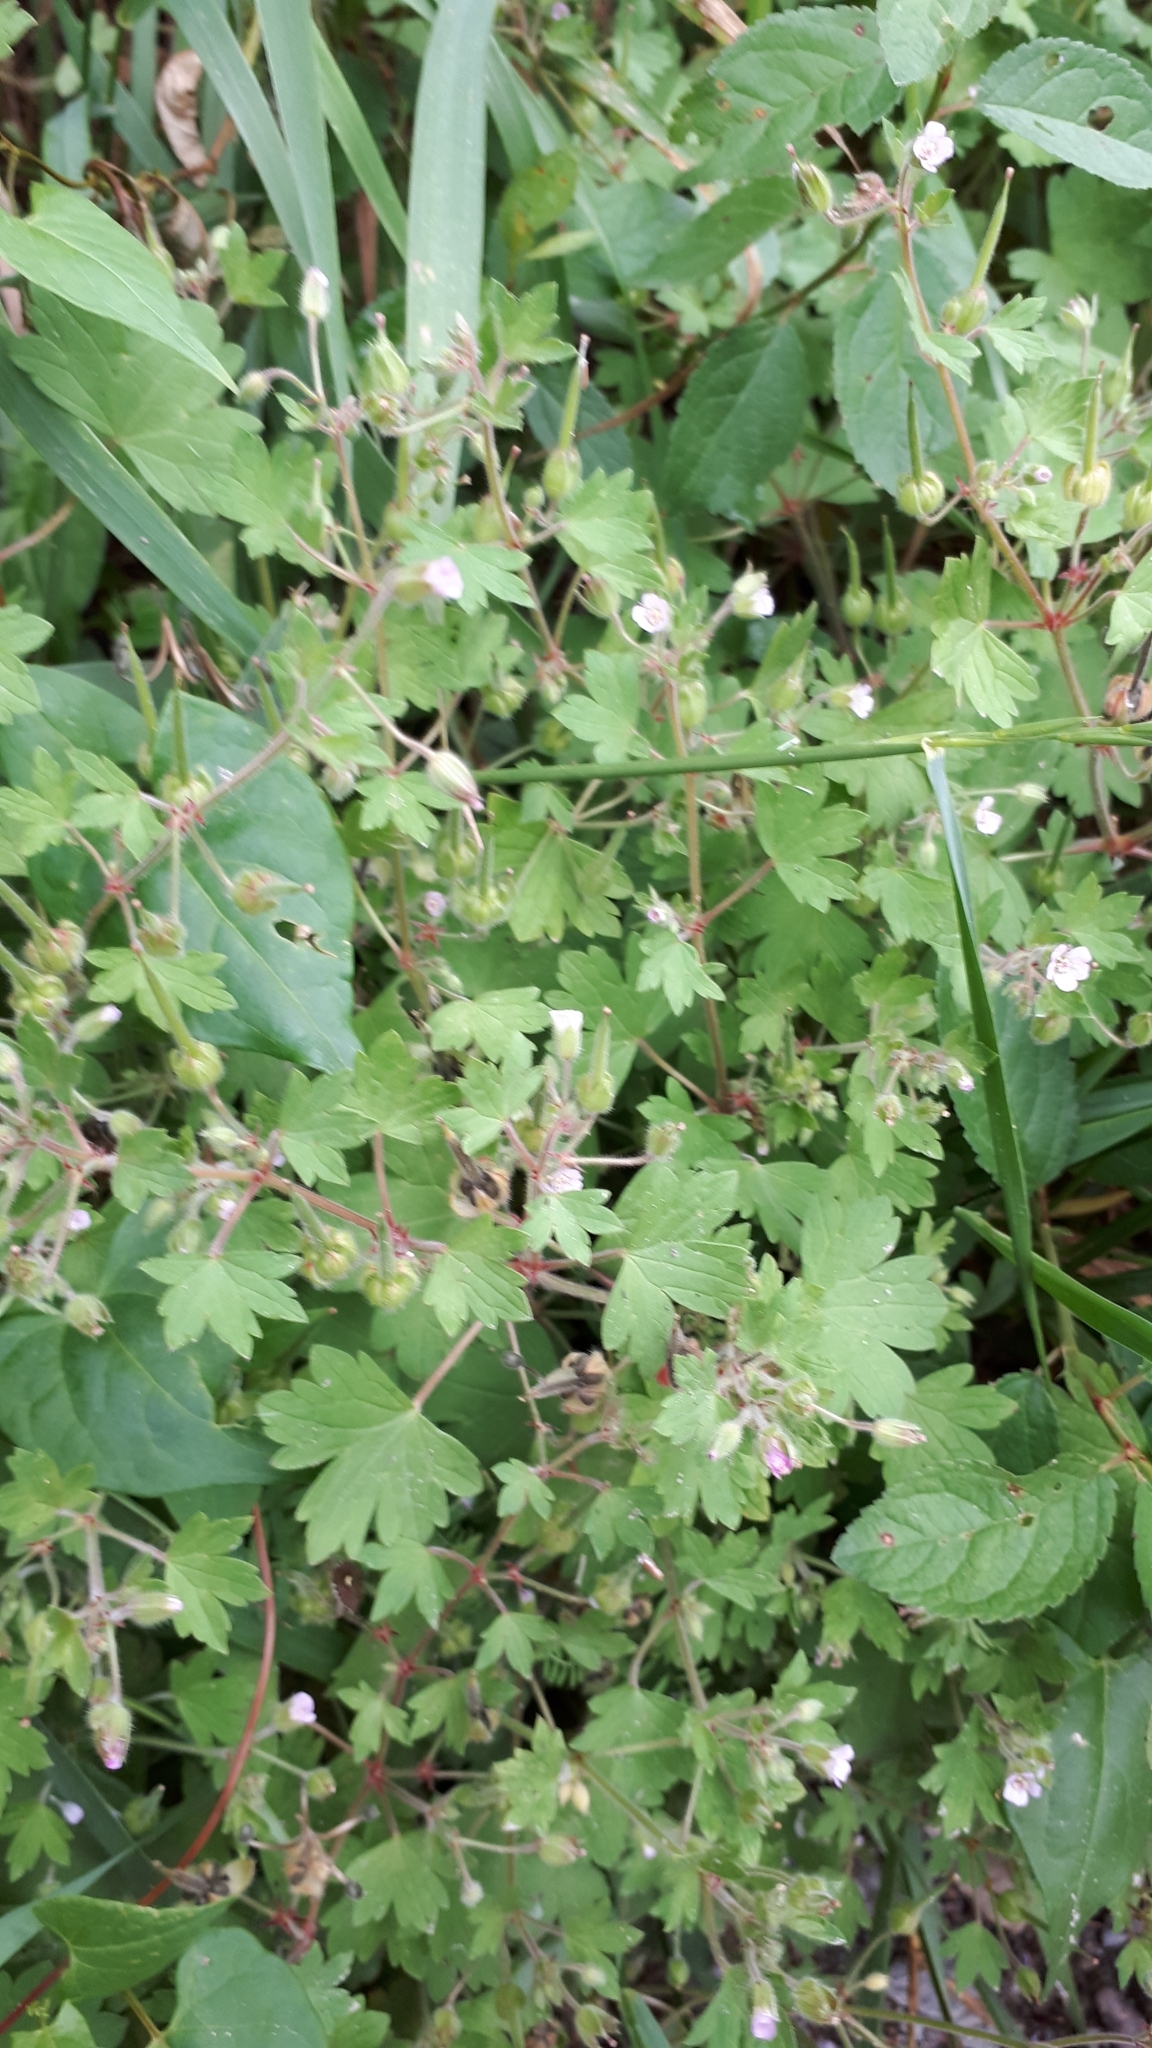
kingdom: Plantae
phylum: Tracheophyta
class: Magnoliopsida
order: Geraniales
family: Geraniaceae
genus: Geranium
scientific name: Geranium rotundifolium
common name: Round-leaved crane's-bill
